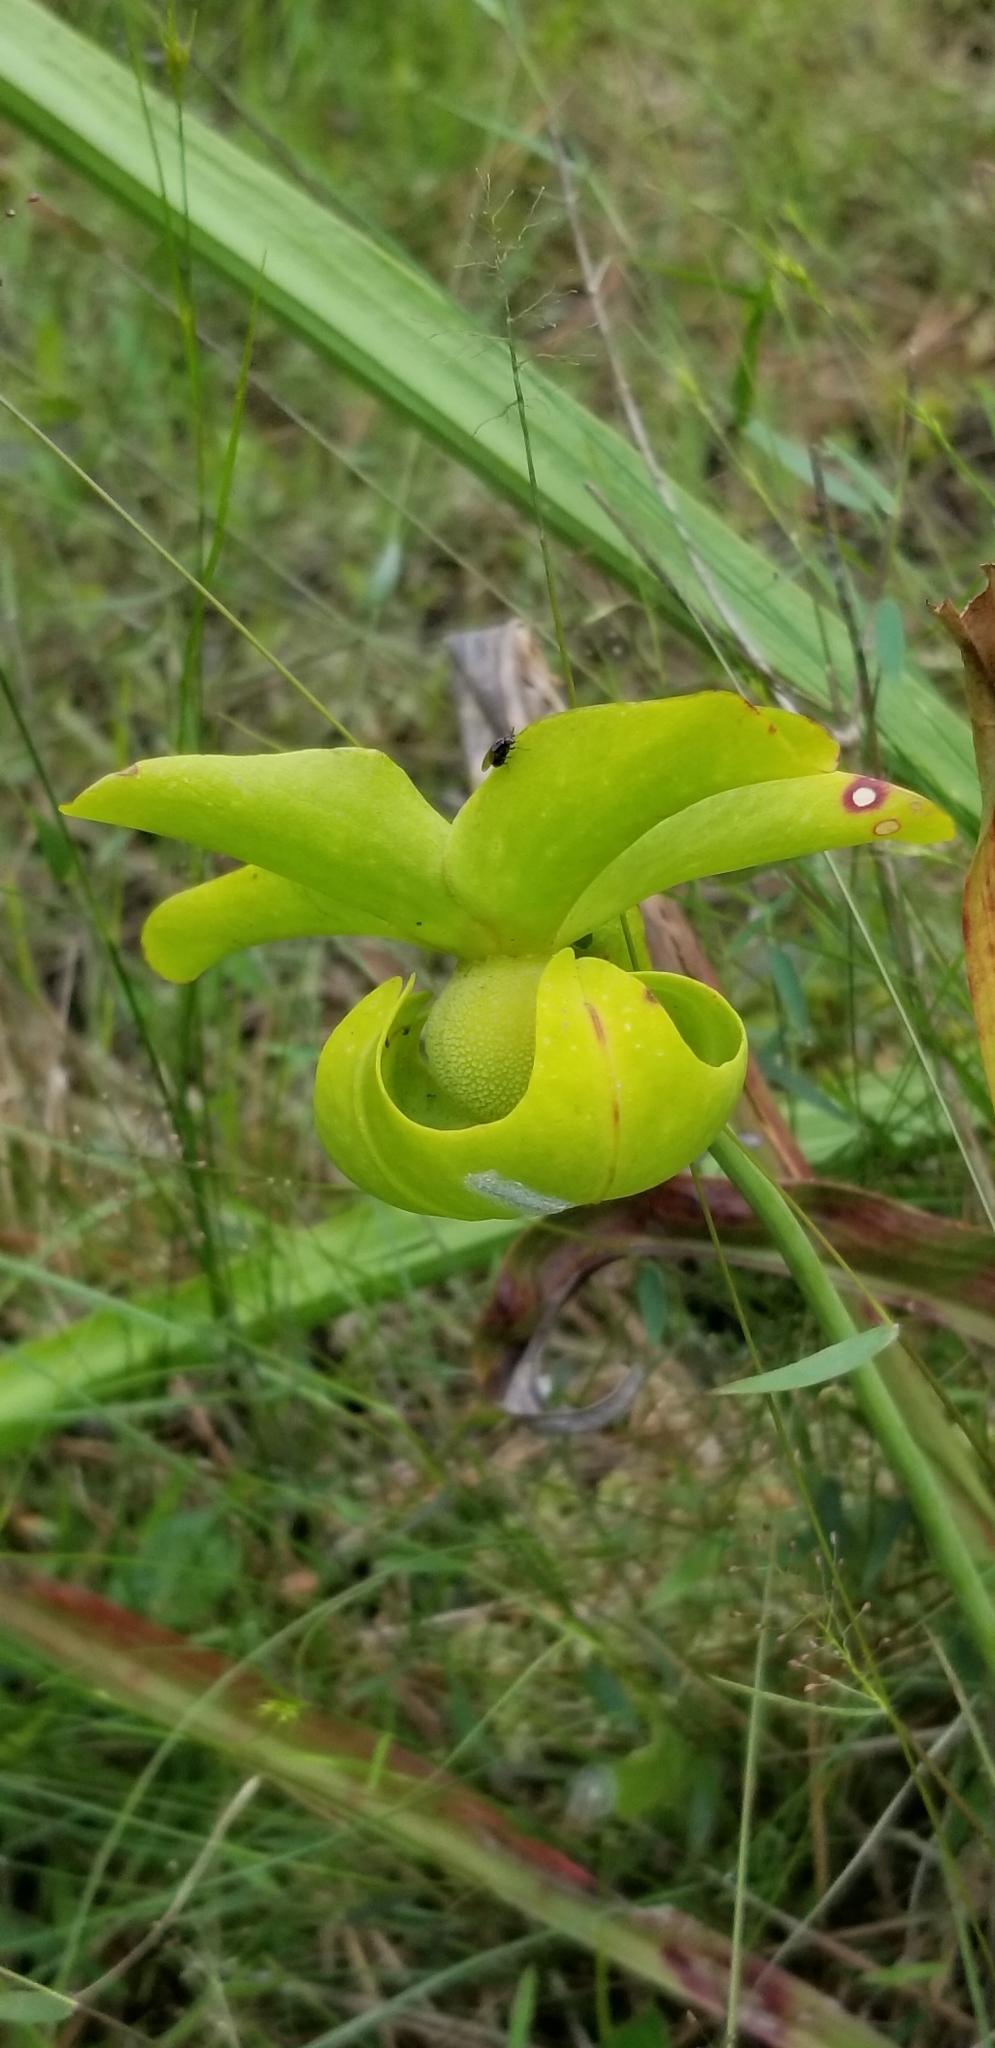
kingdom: Plantae
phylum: Tracheophyta
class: Magnoliopsida
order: Ericales
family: Sarraceniaceae
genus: Sarracenia
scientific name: Sarracenia alata
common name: Yellow trumpets
